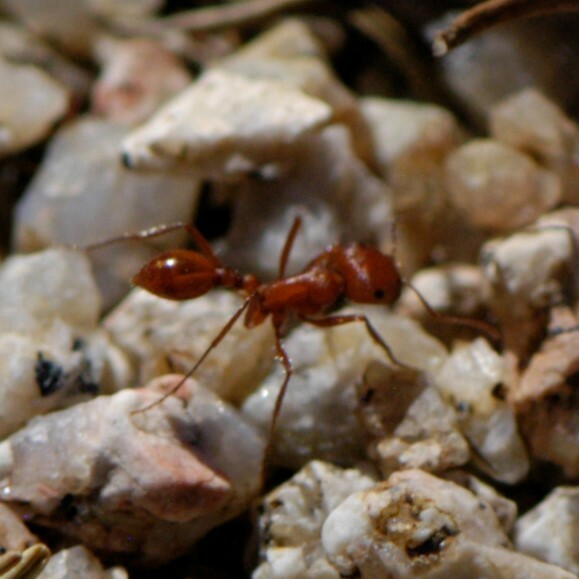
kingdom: Animalia
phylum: Arthropoda
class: Insecta
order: Hymenoptera
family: Formicidae
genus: Pogonomyrmex
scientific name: Pogonomyrmex
